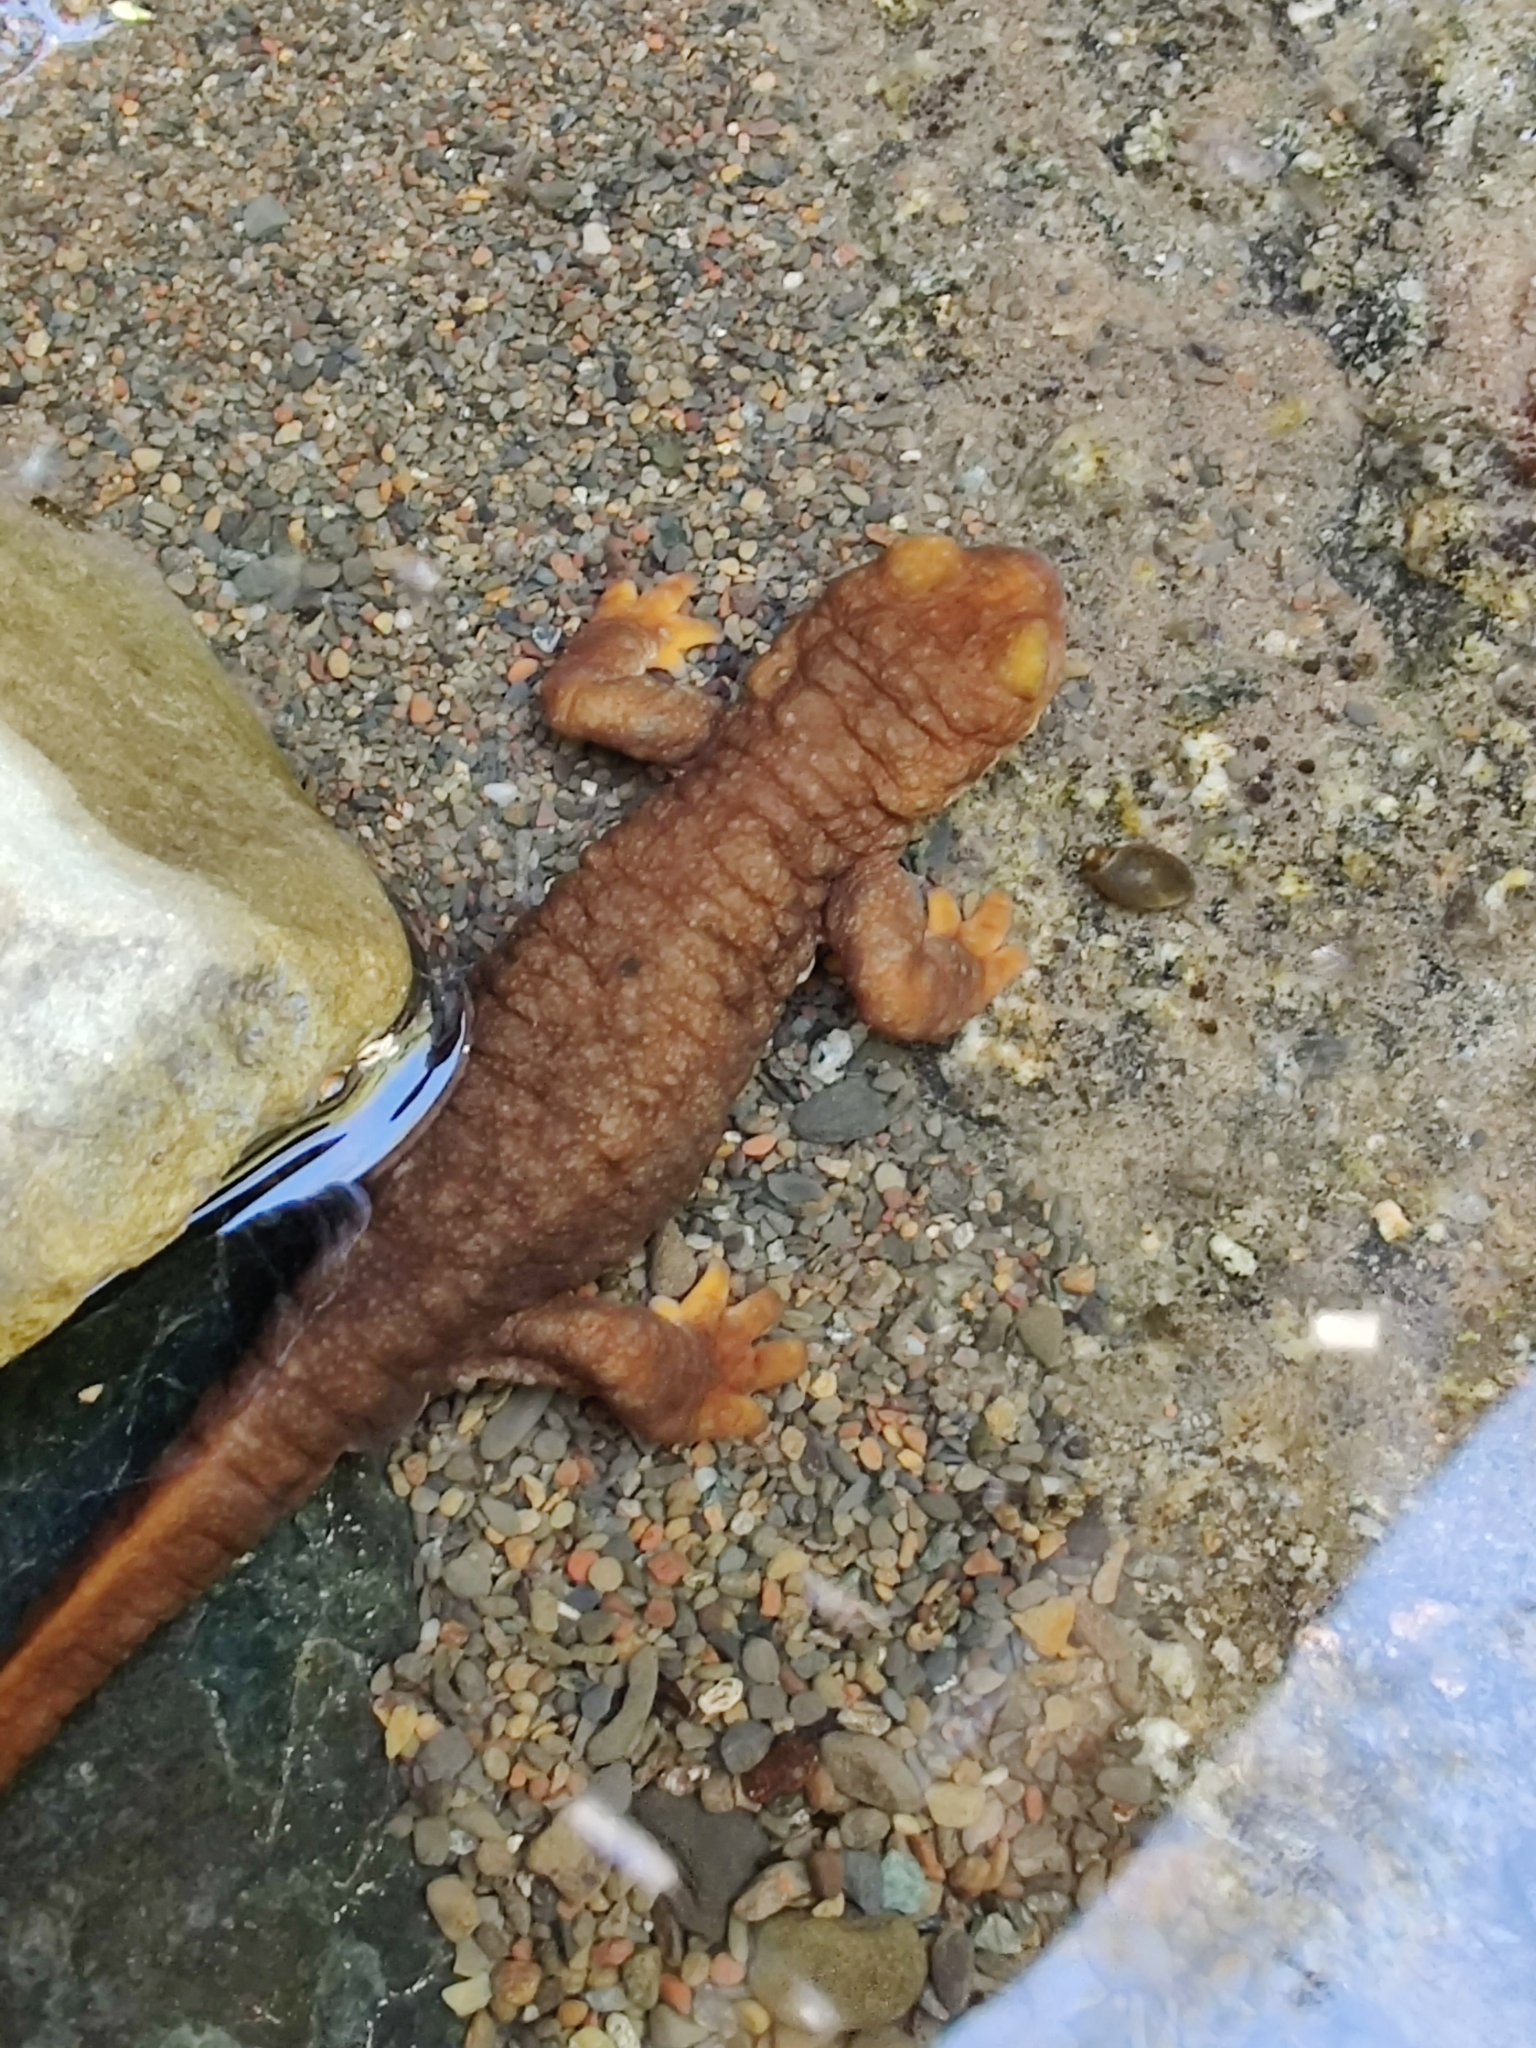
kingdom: Animalia
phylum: Chordata
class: Amphibia
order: Caudata
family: Salamandridae
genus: Taricha
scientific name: Taricha torosa
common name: California newt
